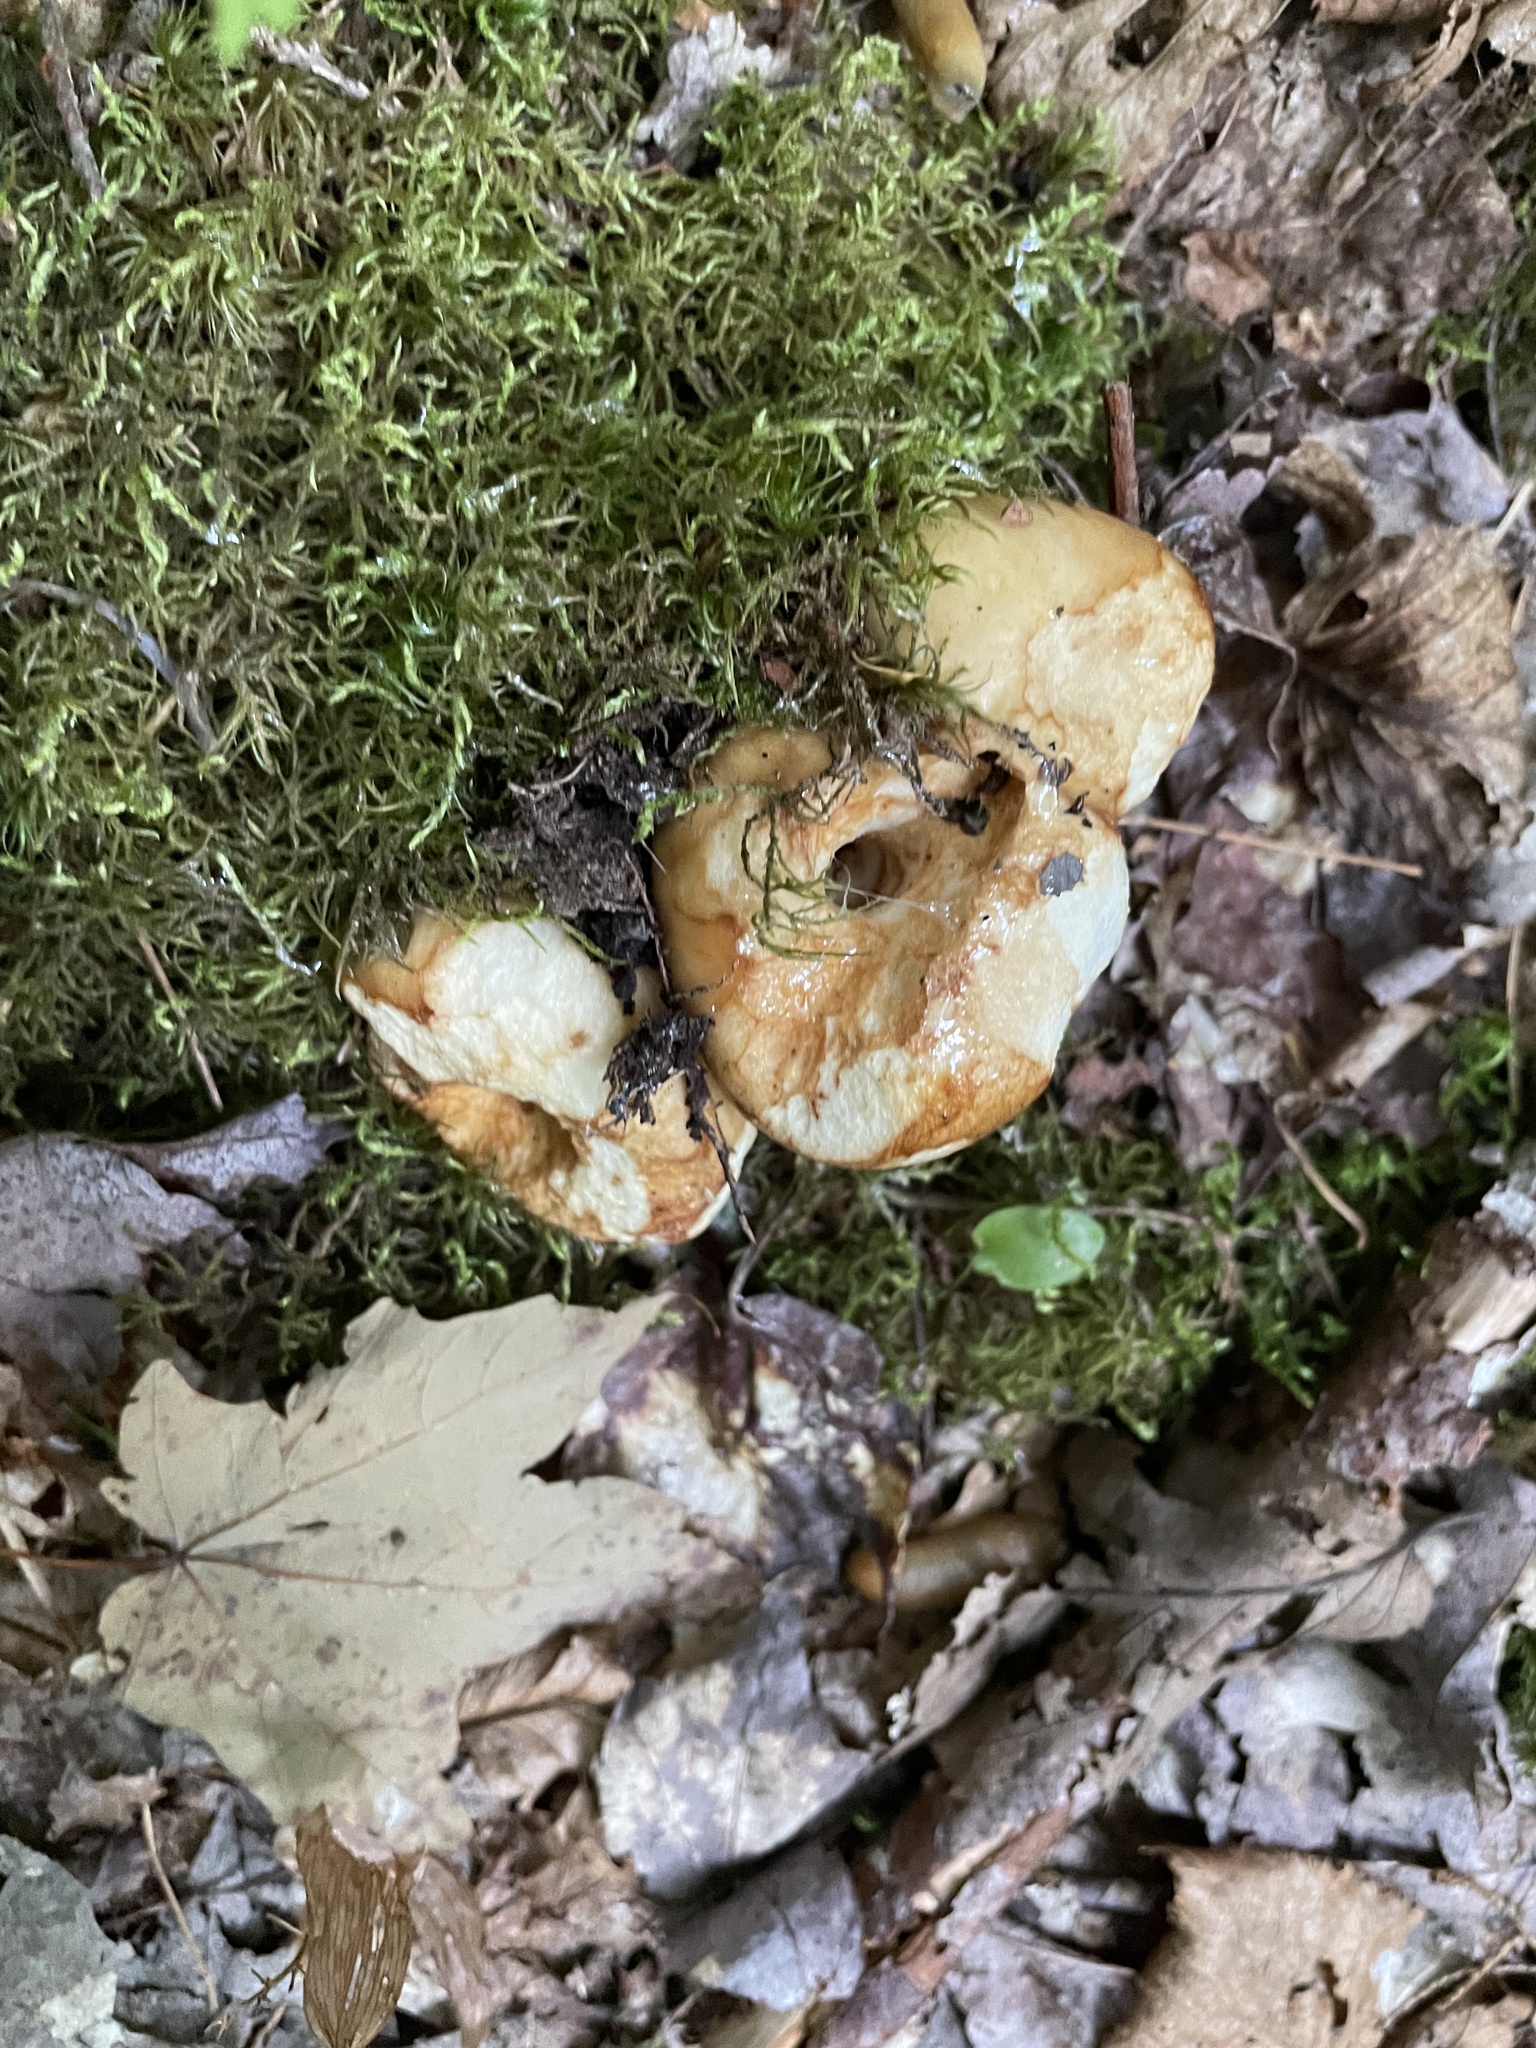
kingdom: Fungi
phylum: Ascomycota
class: Sordariomycetes
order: Hypocreales
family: Hypocreaceae
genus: Hypomyces
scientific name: Hypomyces lactifluorum
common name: Lobster mushroom
